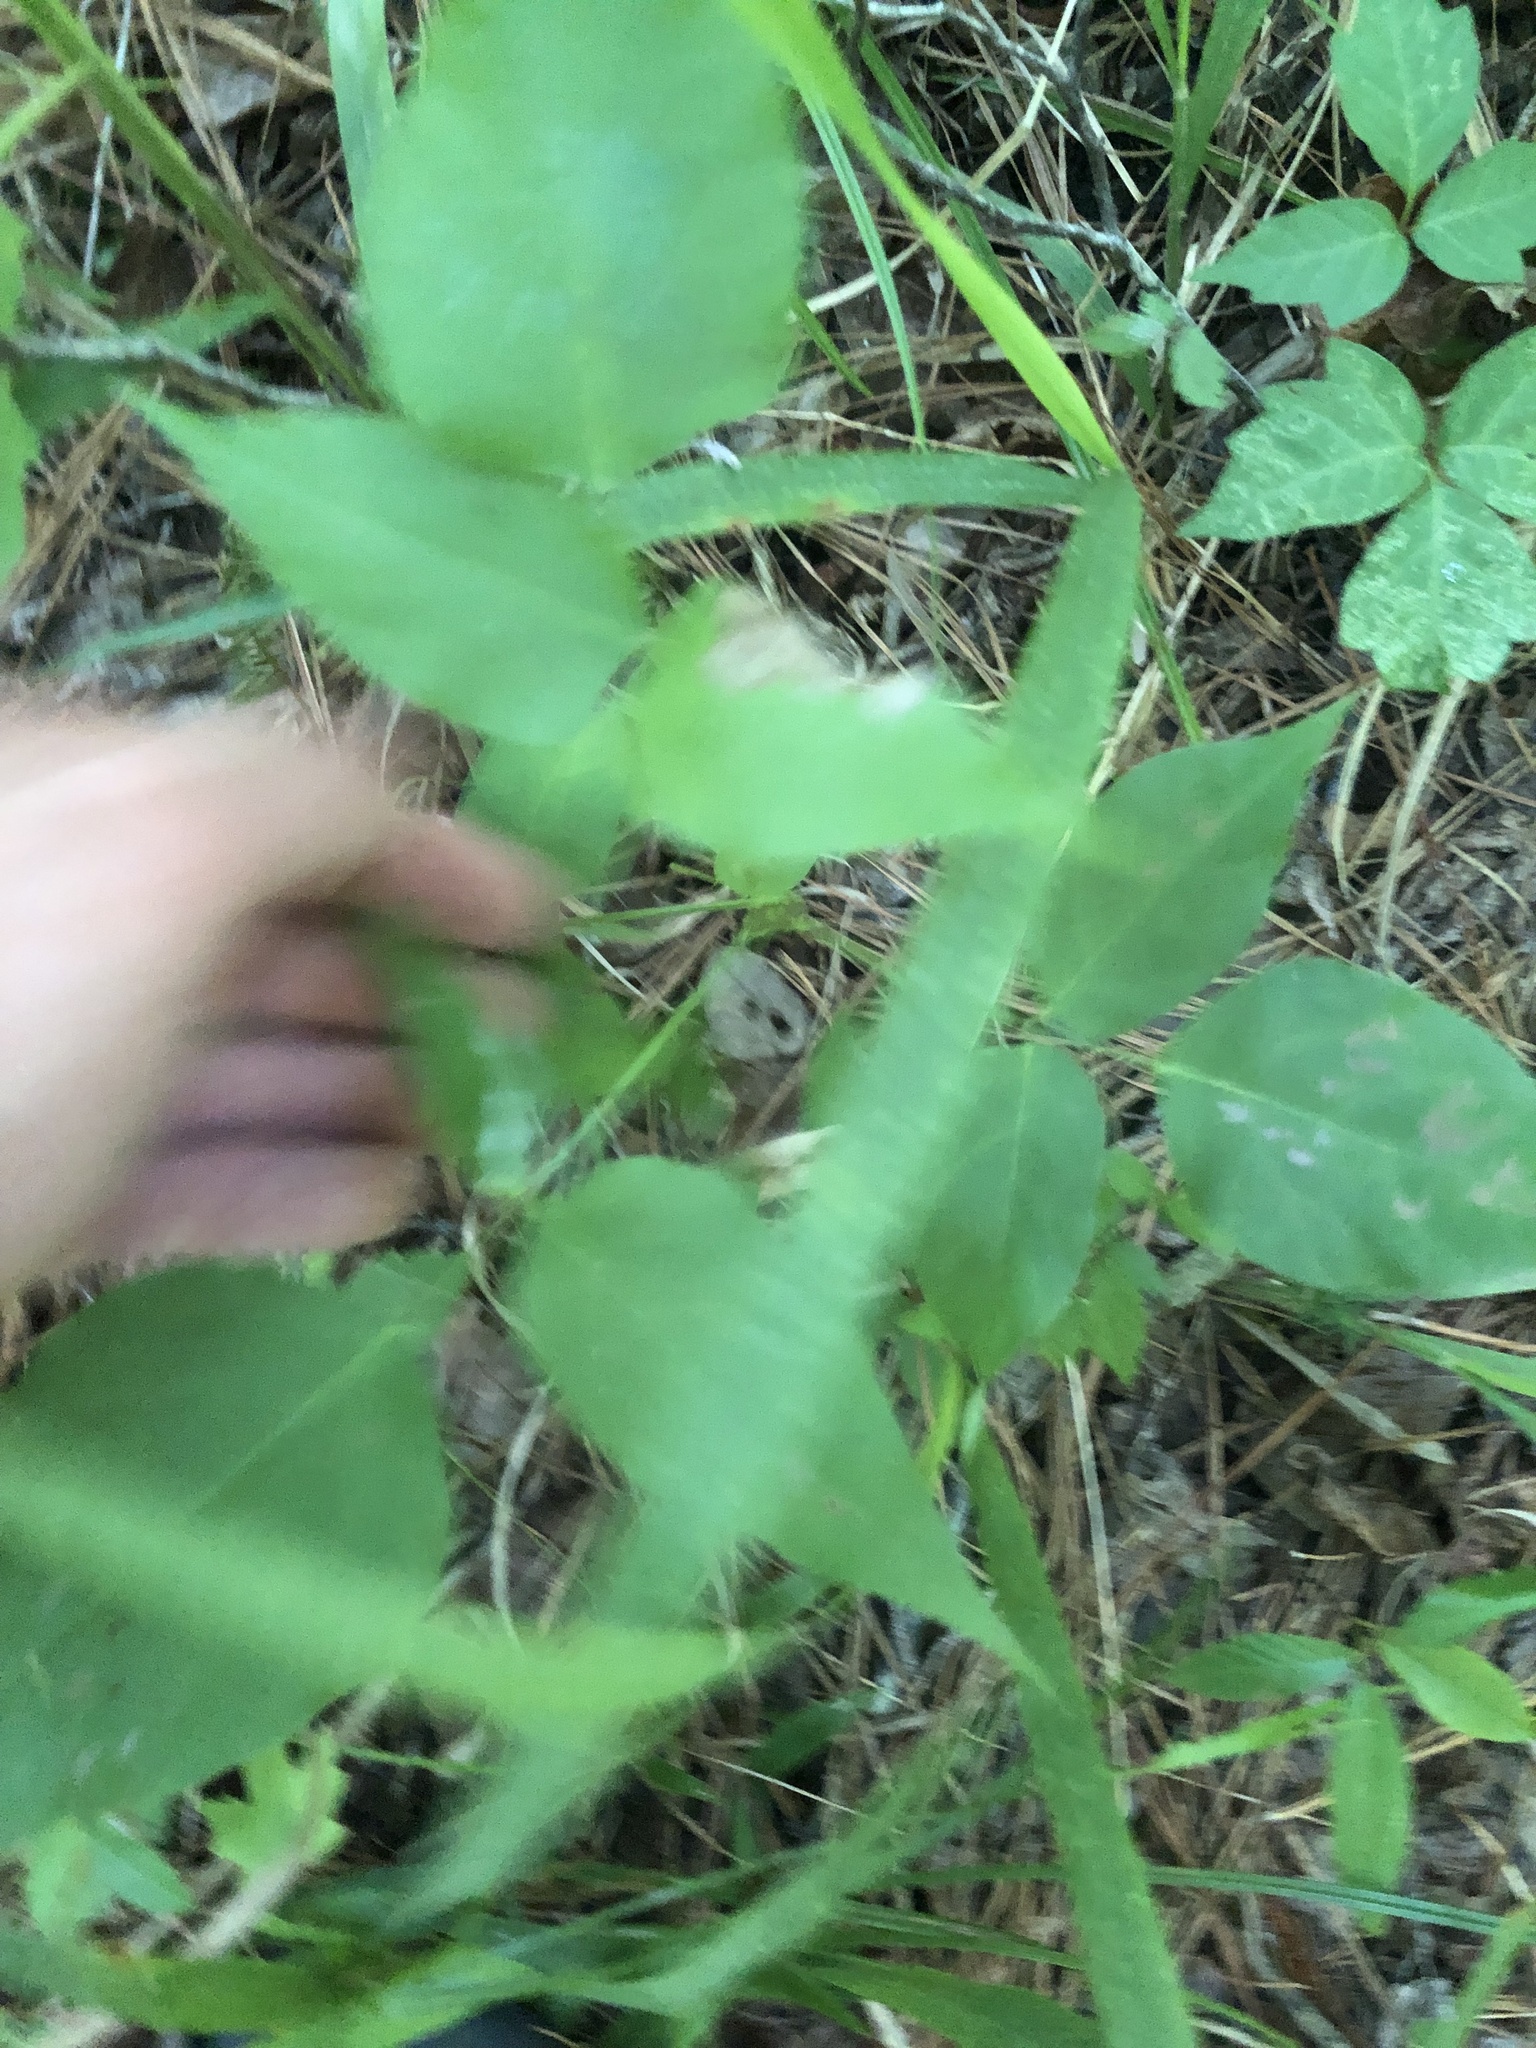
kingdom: Plantae
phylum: Tracheophyta
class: Magnoliopsida
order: Fabales
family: Fabaceae
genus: Desmodium
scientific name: Desmodium cuspidatum
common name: Big tick trefoil
